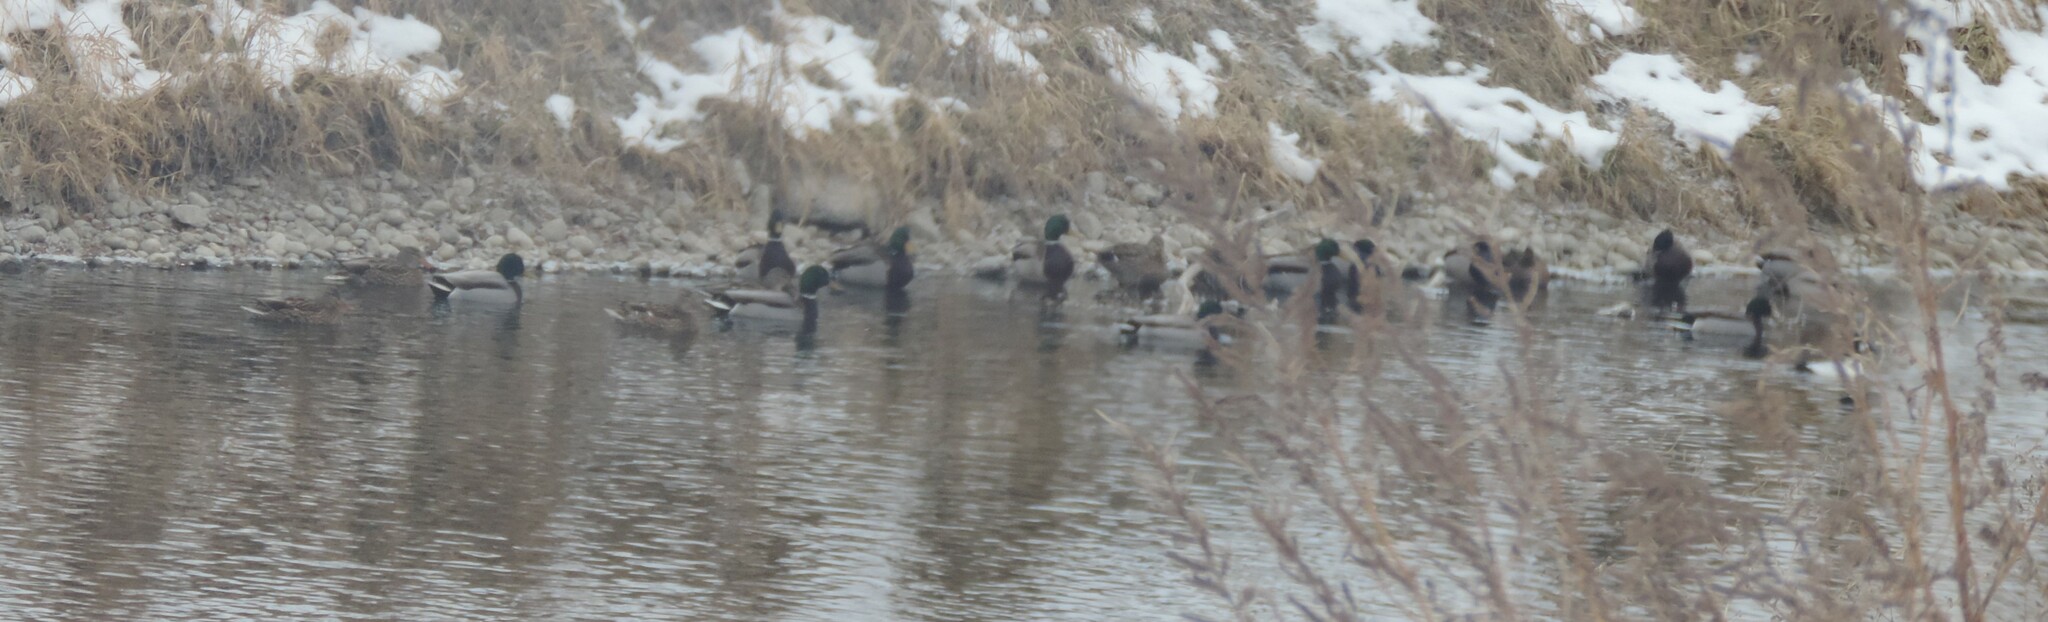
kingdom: Animalia
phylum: Chordata
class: Aves
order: Anseriformes
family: Anatidae
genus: Anas
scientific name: Anas platyrhynchos
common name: Mallard
